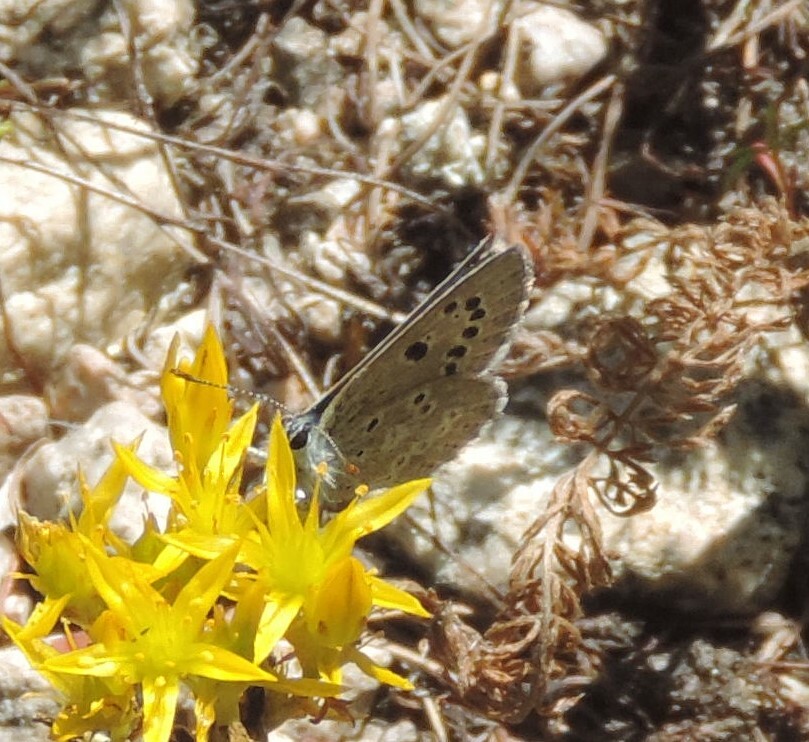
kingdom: Animalia
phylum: Arthropoda
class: Insecta
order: Lepidoptera
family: Lycaenidae
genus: Icaricia
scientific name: Icaricia icarioides
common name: Boisduval's blue
